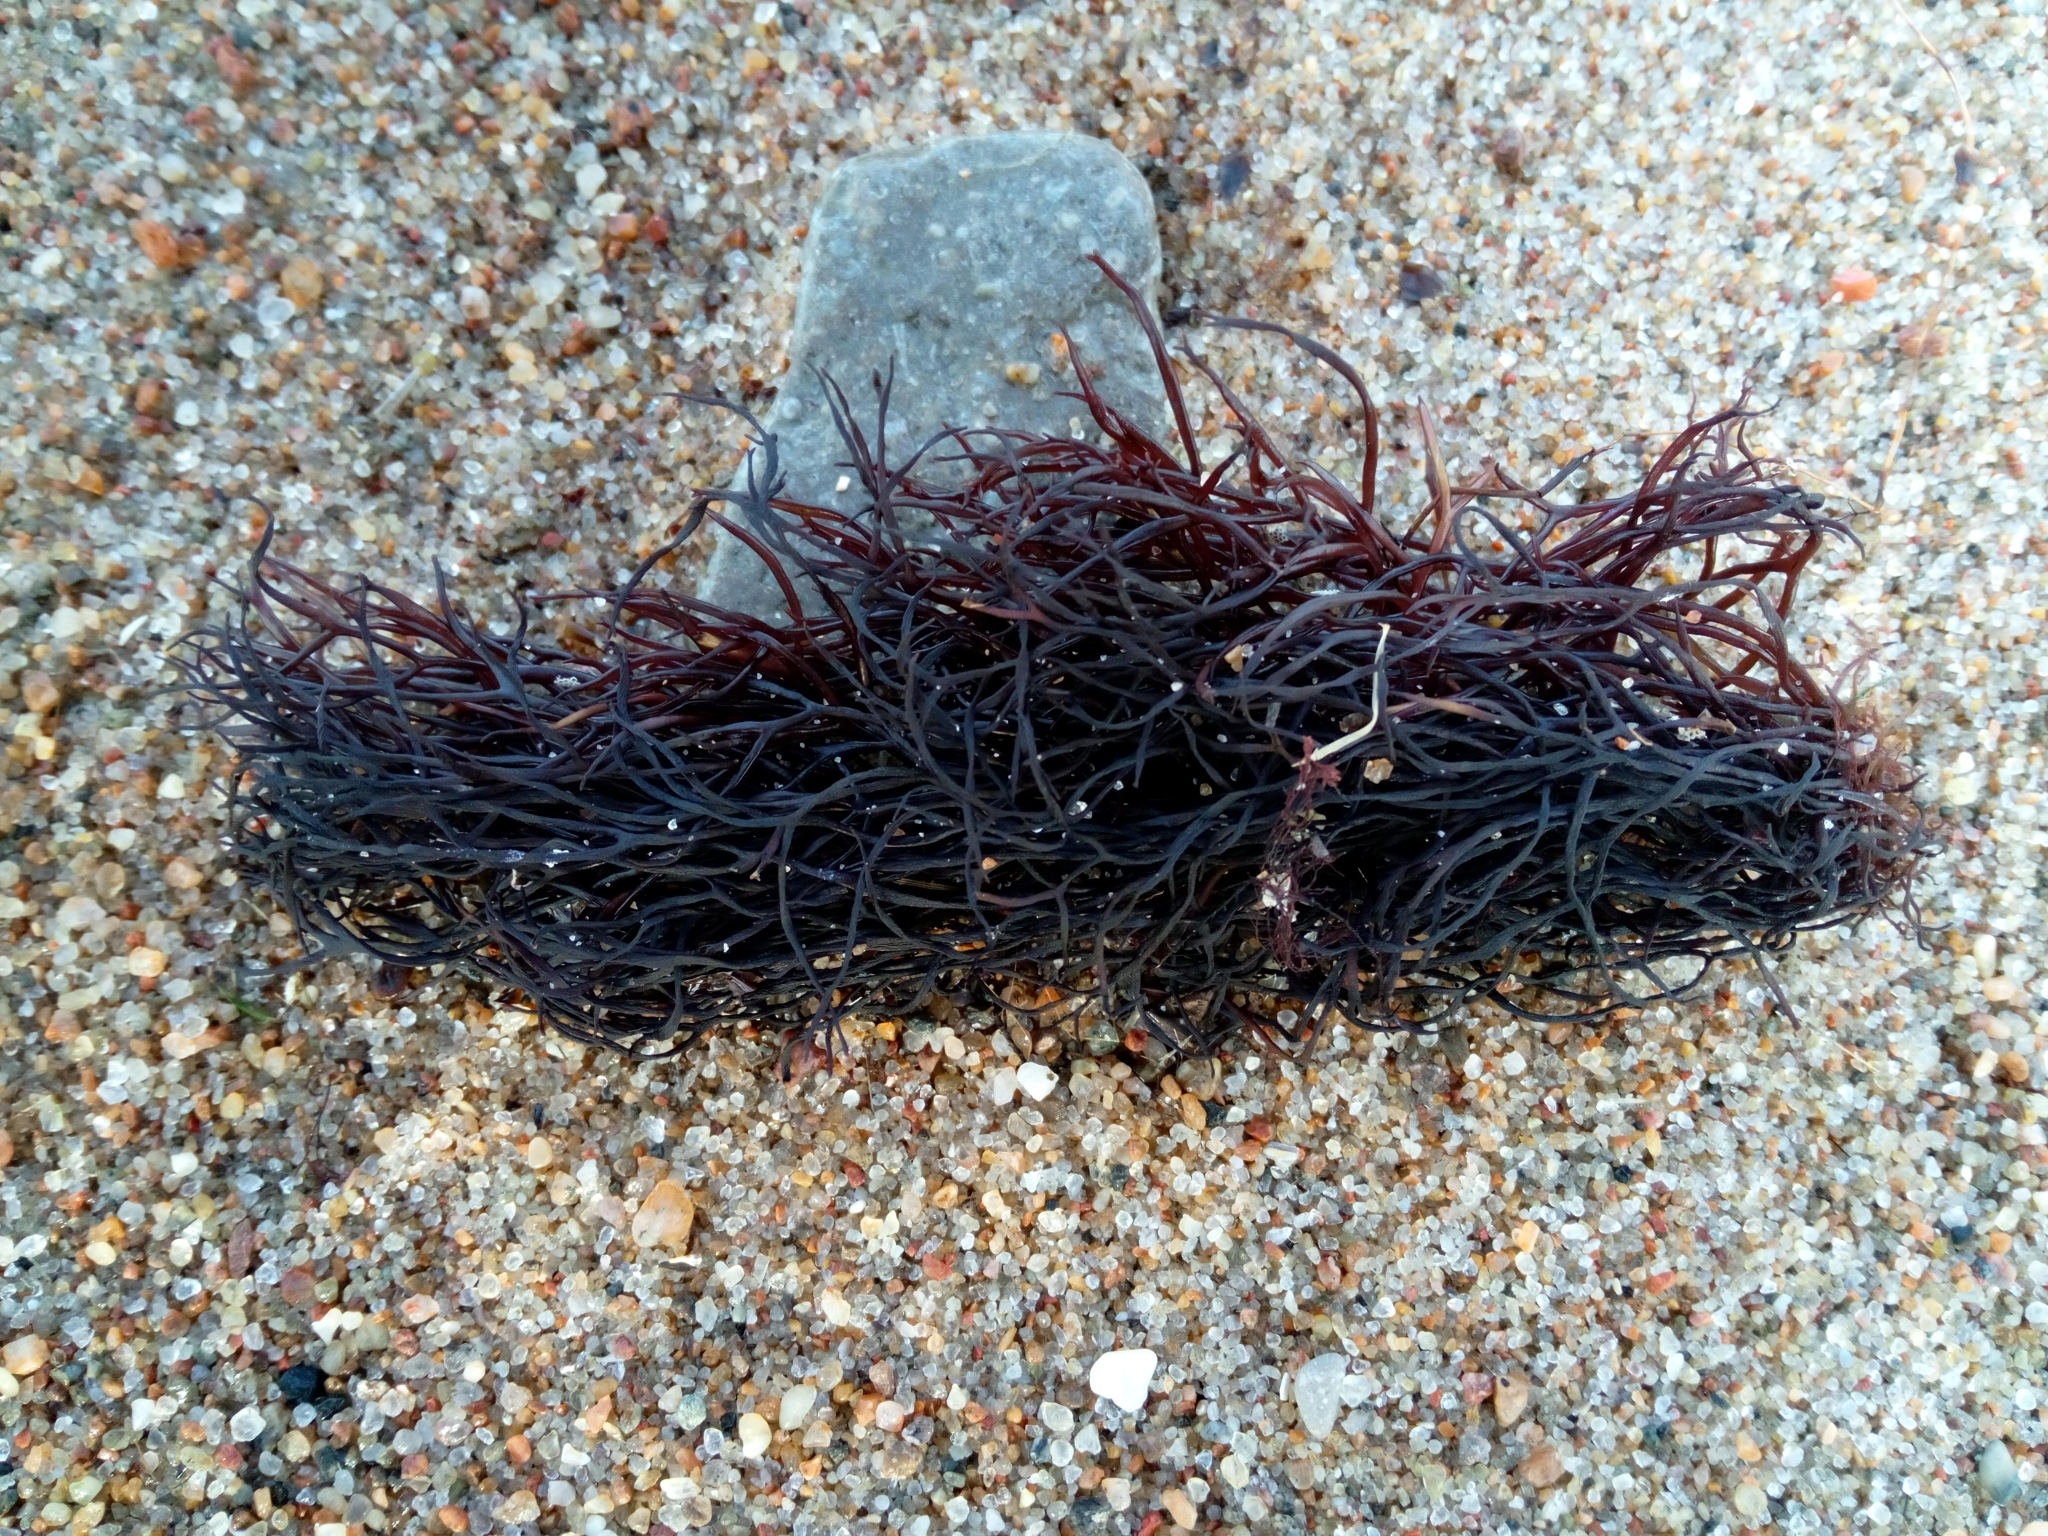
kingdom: Plantae
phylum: Rhodophyta
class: Florideophyceae
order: Gigartinales
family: Furcellariaceae
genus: Furcellaria
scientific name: Furcellaria lumbricalis
